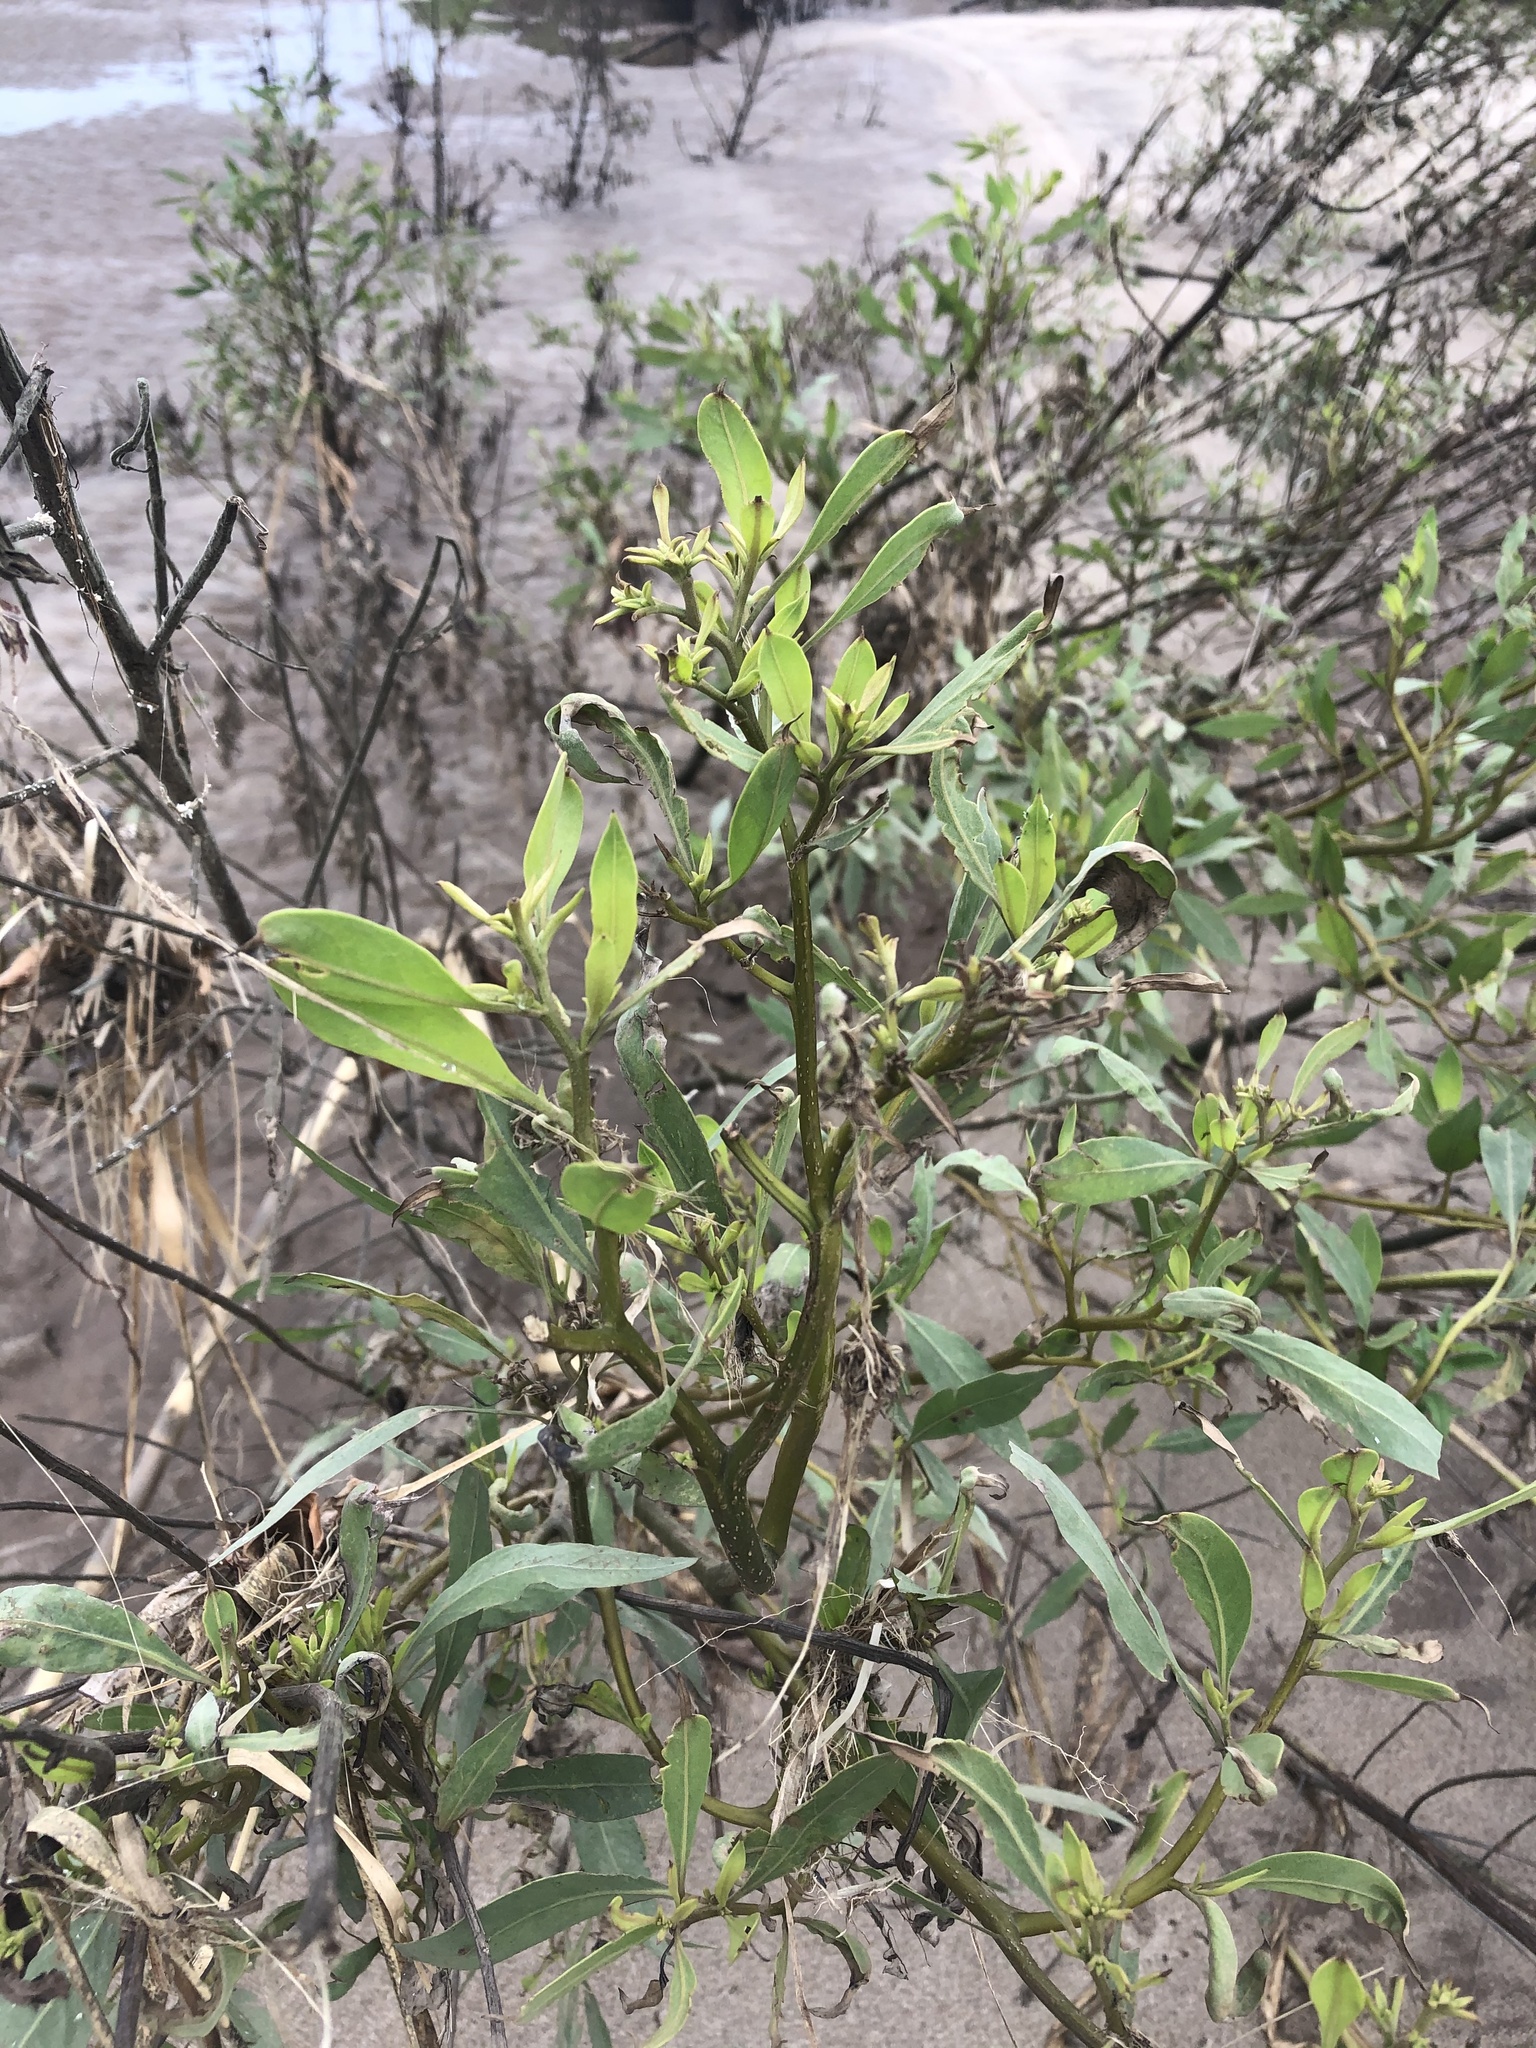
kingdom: Plantae
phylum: Tracheophyta
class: Magnoliopsida
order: Asterales
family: Asteraceae
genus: Tessaria
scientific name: Tessaria integrifolia
